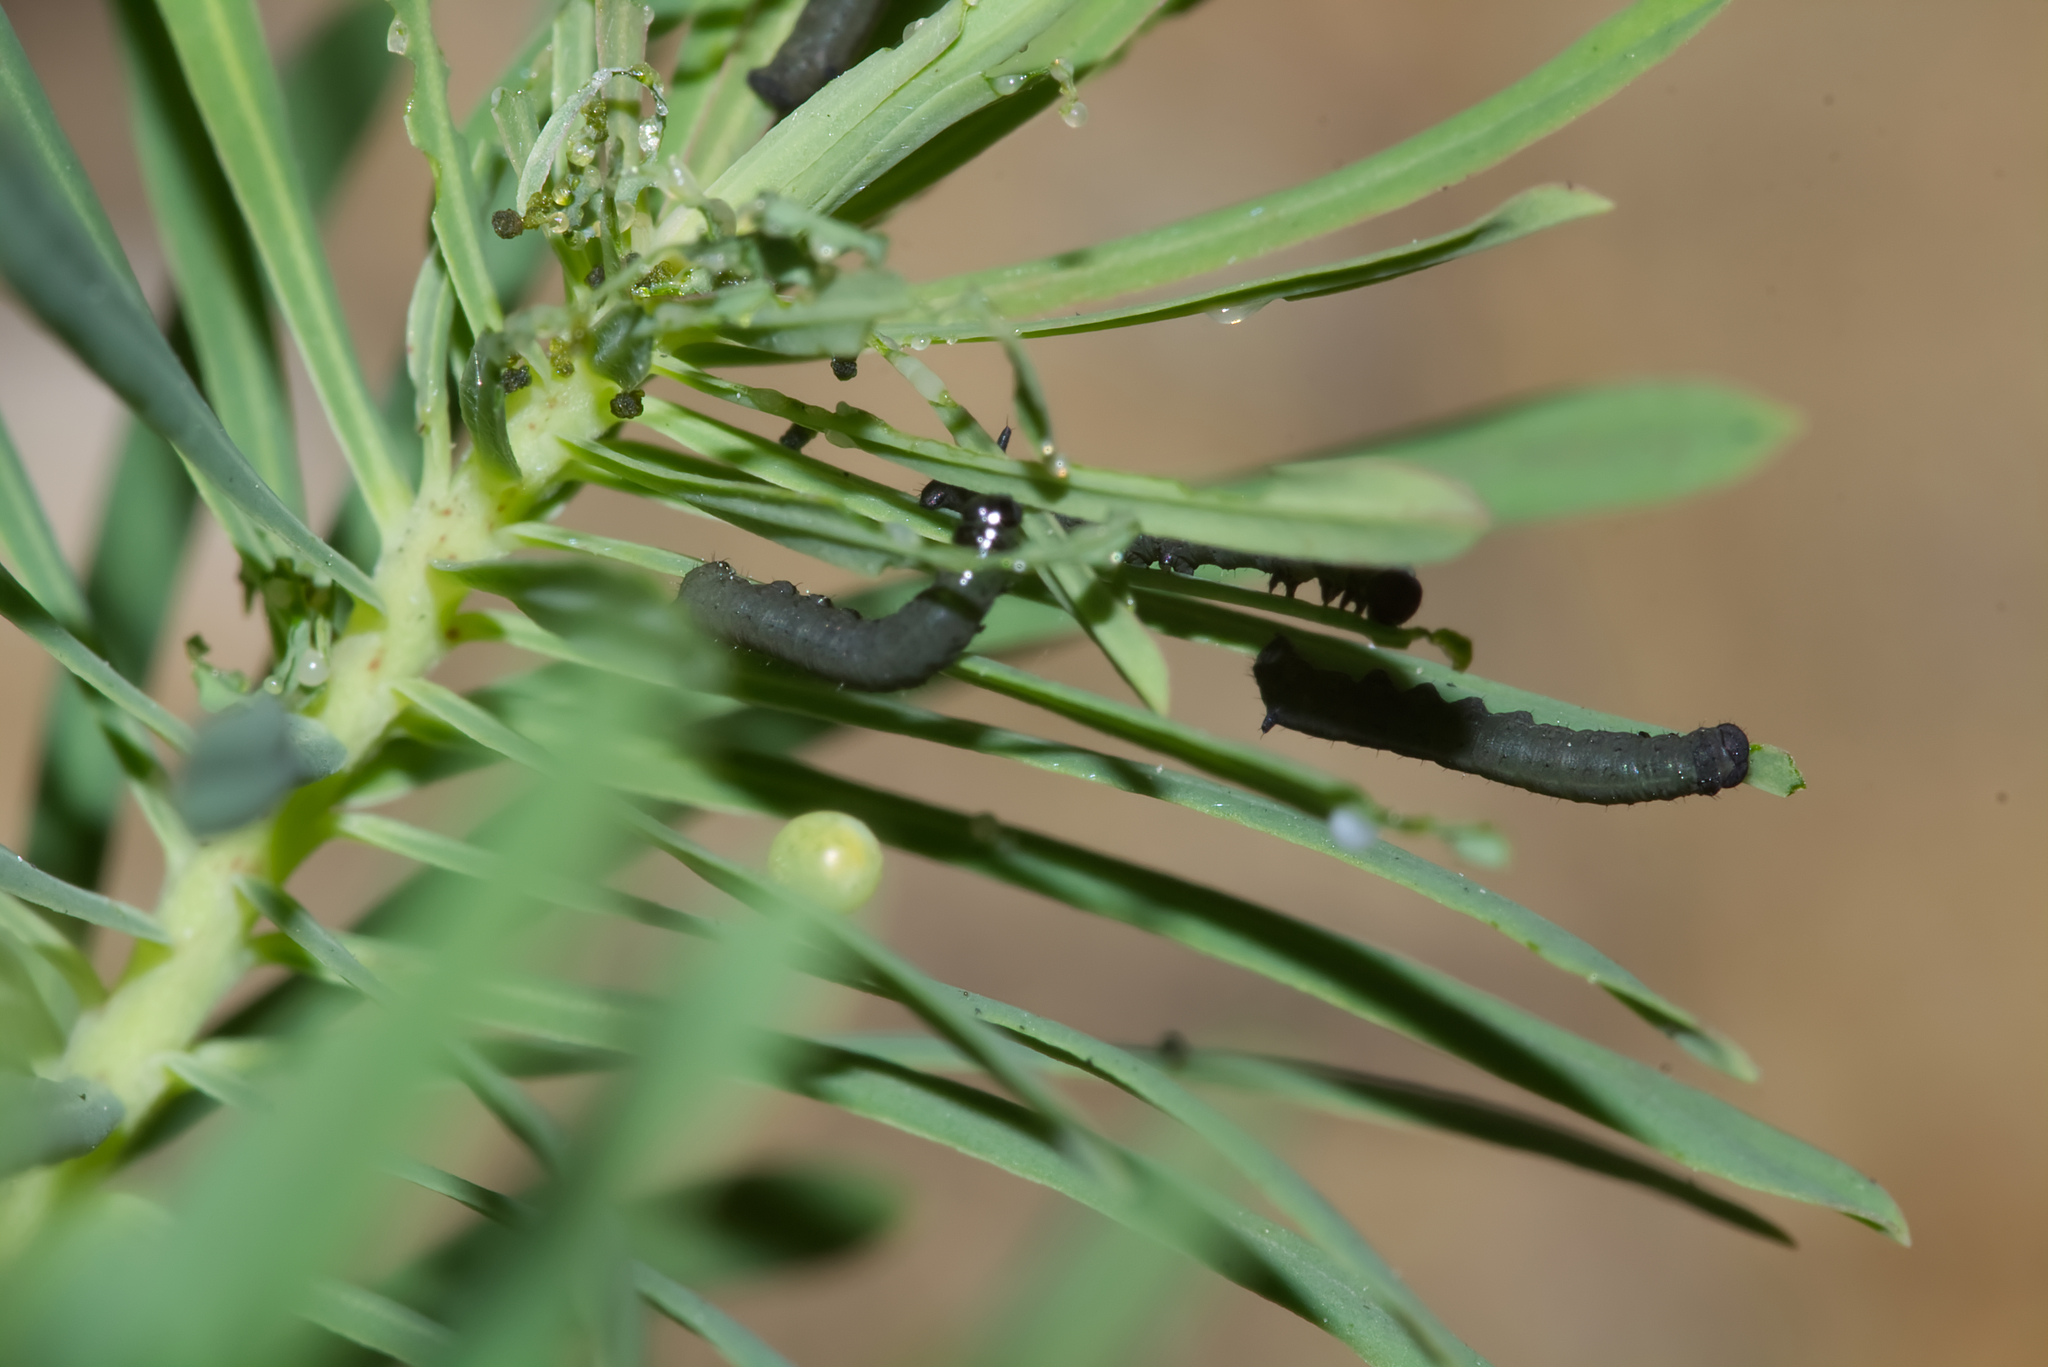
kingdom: Animalia
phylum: Arthropoda
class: Insecta
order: Lepidoptera
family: Sphingidae
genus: Hyles
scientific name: Hyles euphorbiae
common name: Spurge hawk-moth
